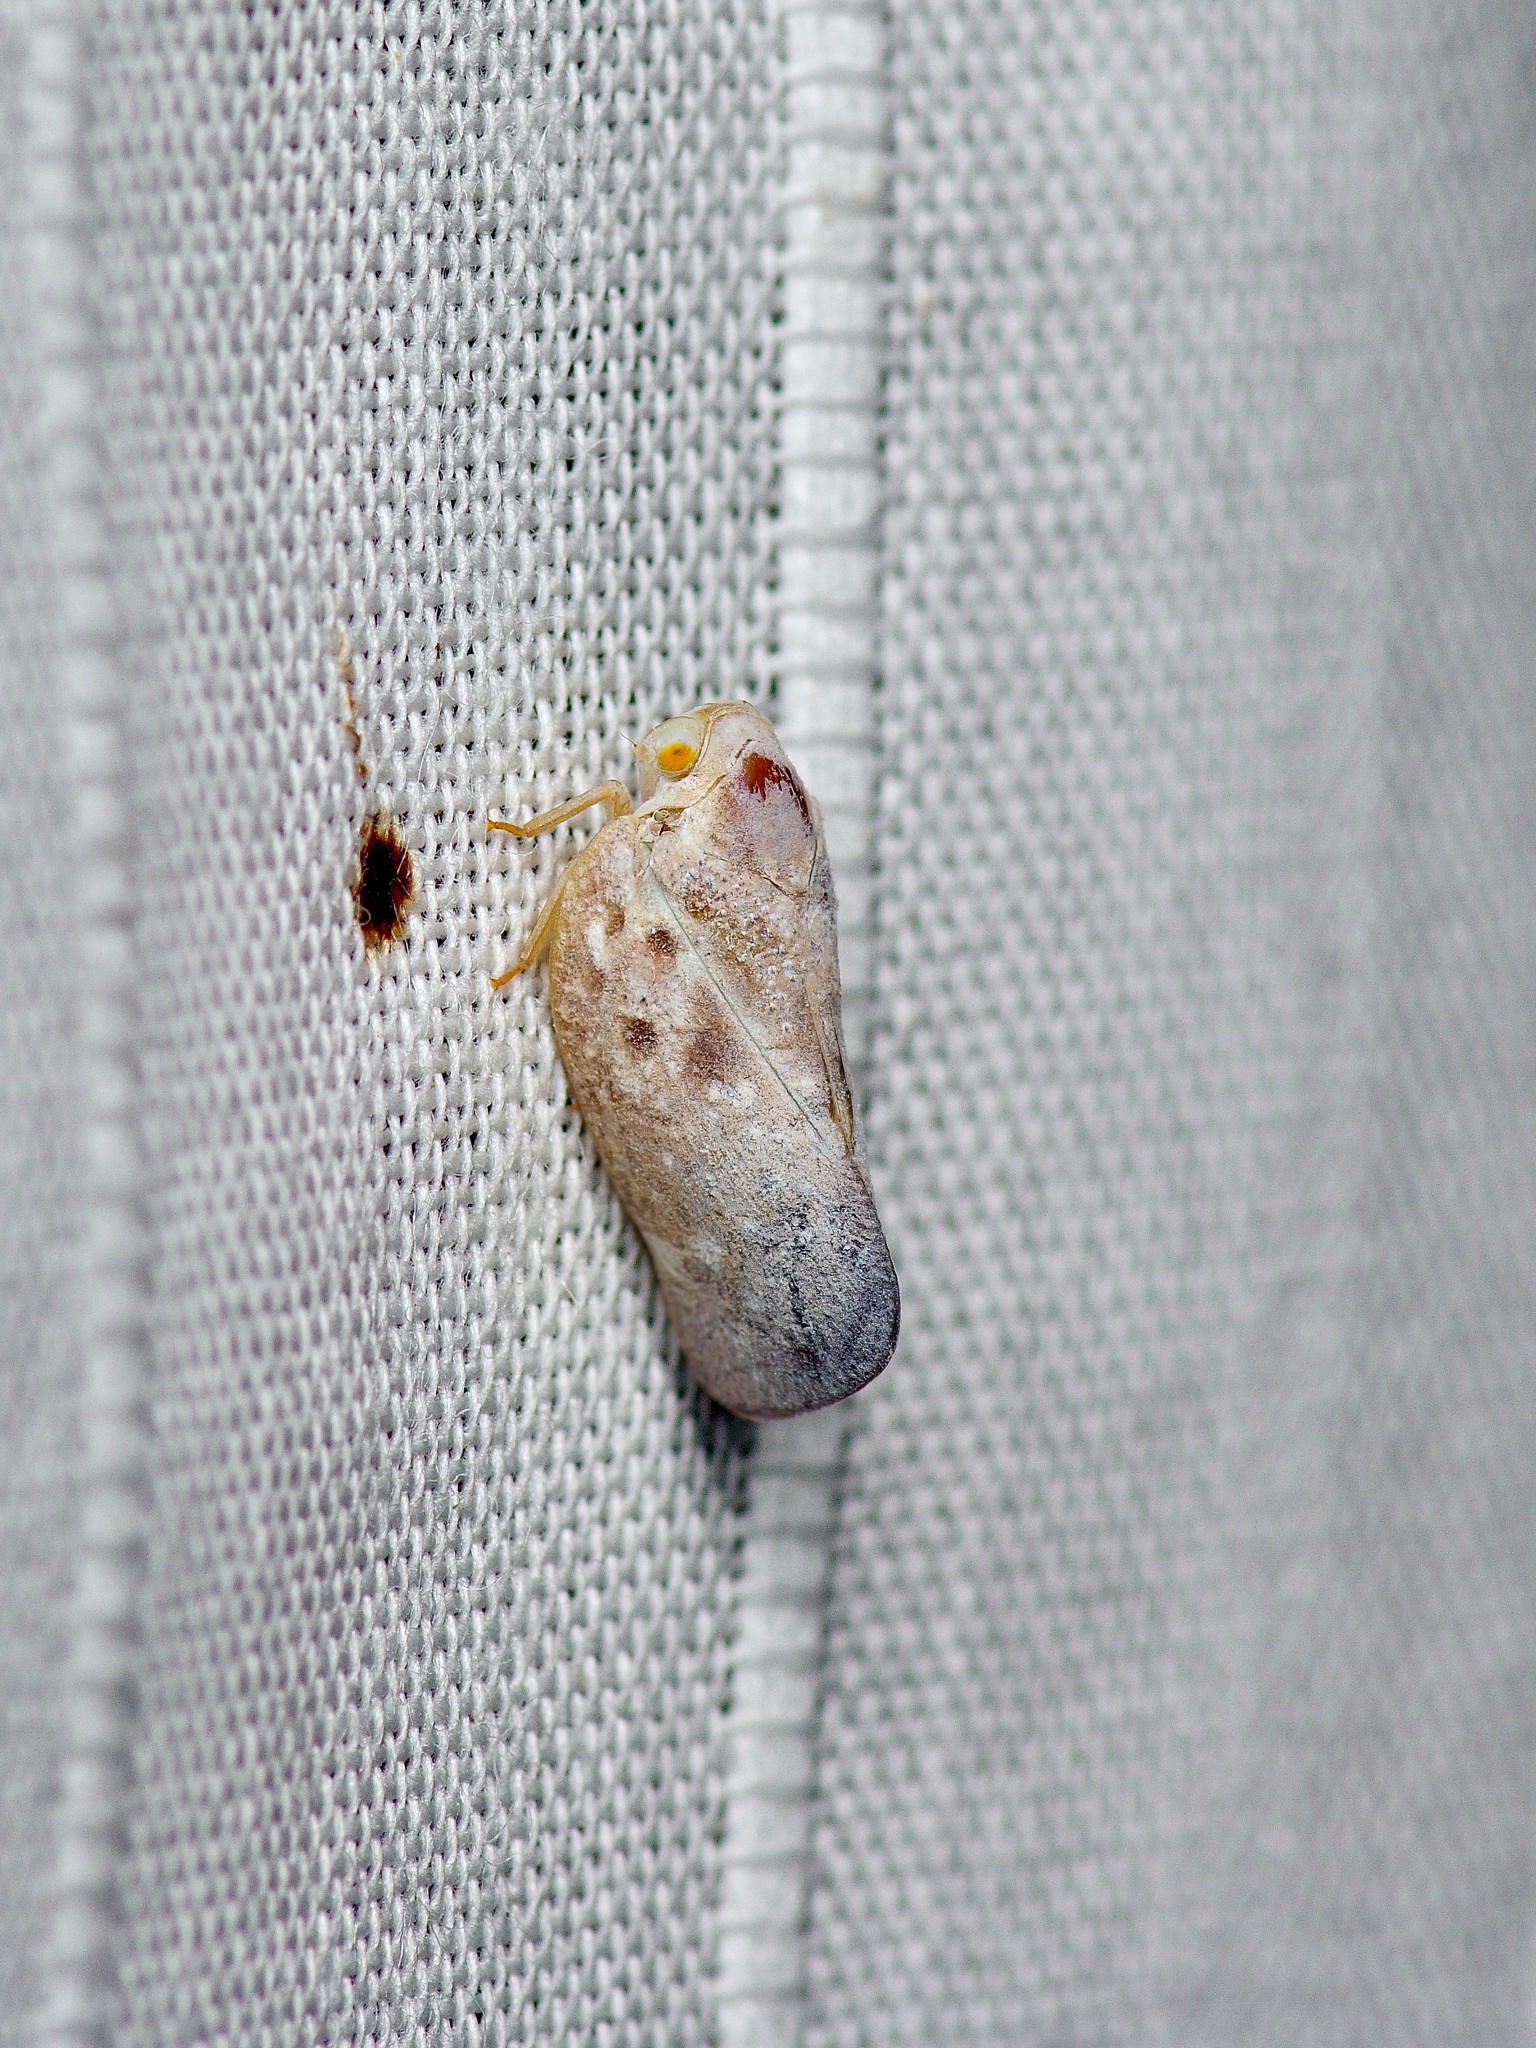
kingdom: Animalia
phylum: Arthropoda
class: Insecta
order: Hemiptera
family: Flatidae
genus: Metcalfa
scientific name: Metcalfa pruinosa
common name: Citrus flatid planthopper
